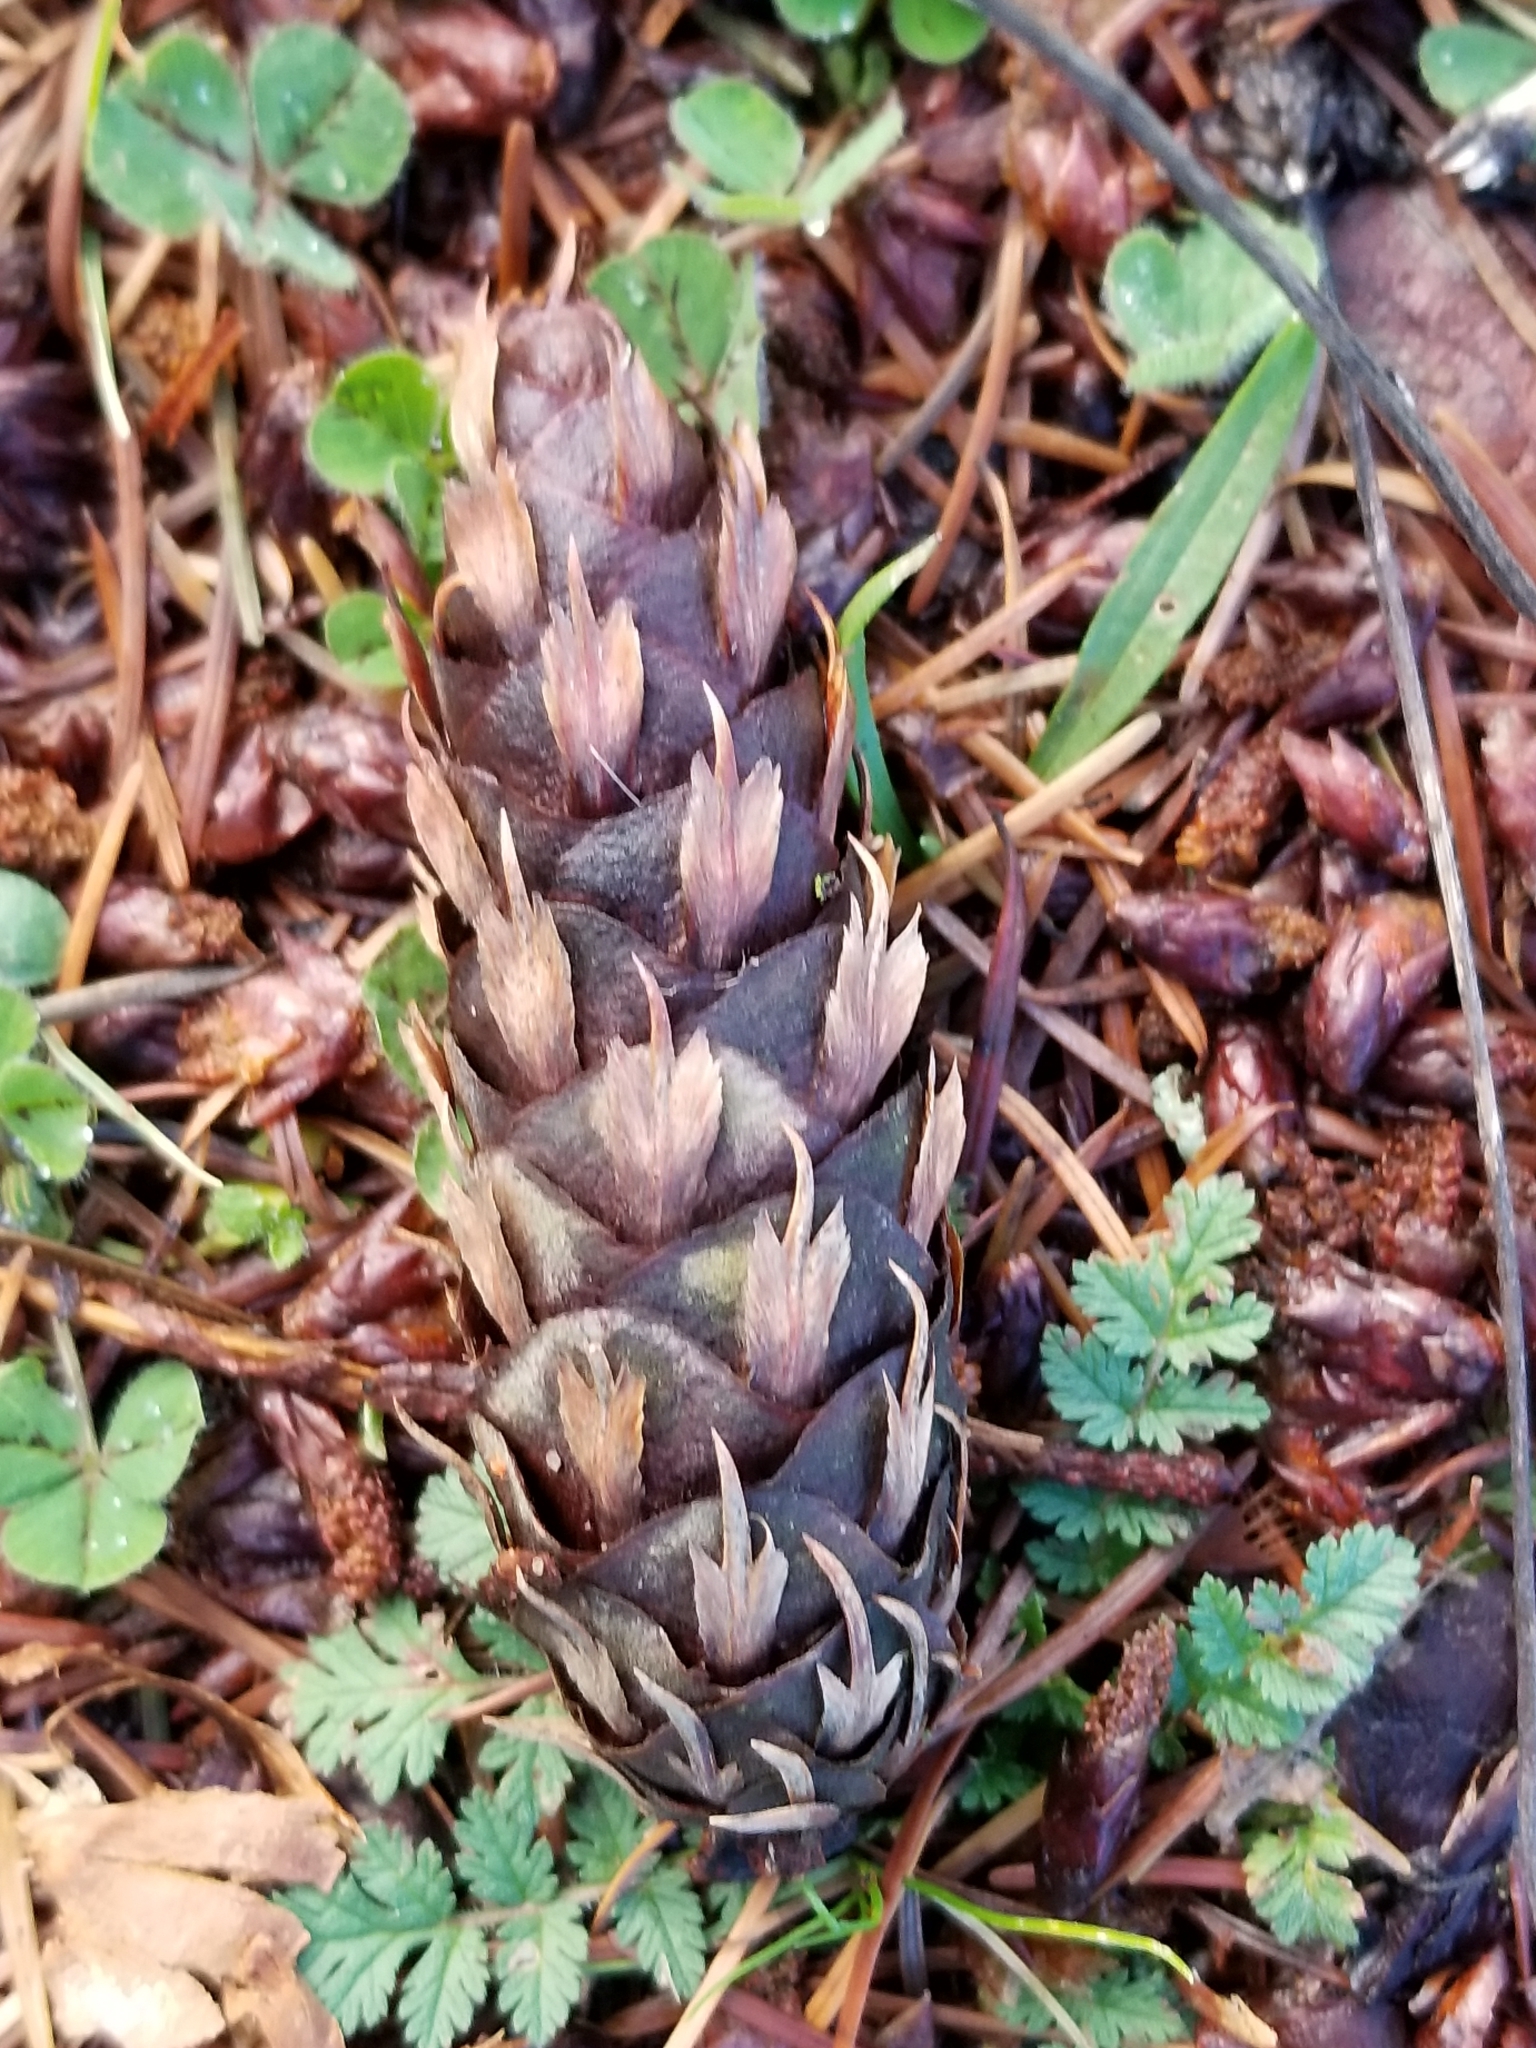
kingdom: Plantae
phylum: Tracheophyta
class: Pinopsida
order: Pinales
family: Pinaceae
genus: Pseudotsuga
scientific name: Pseudotsuga menziesii
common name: Douglas fir
